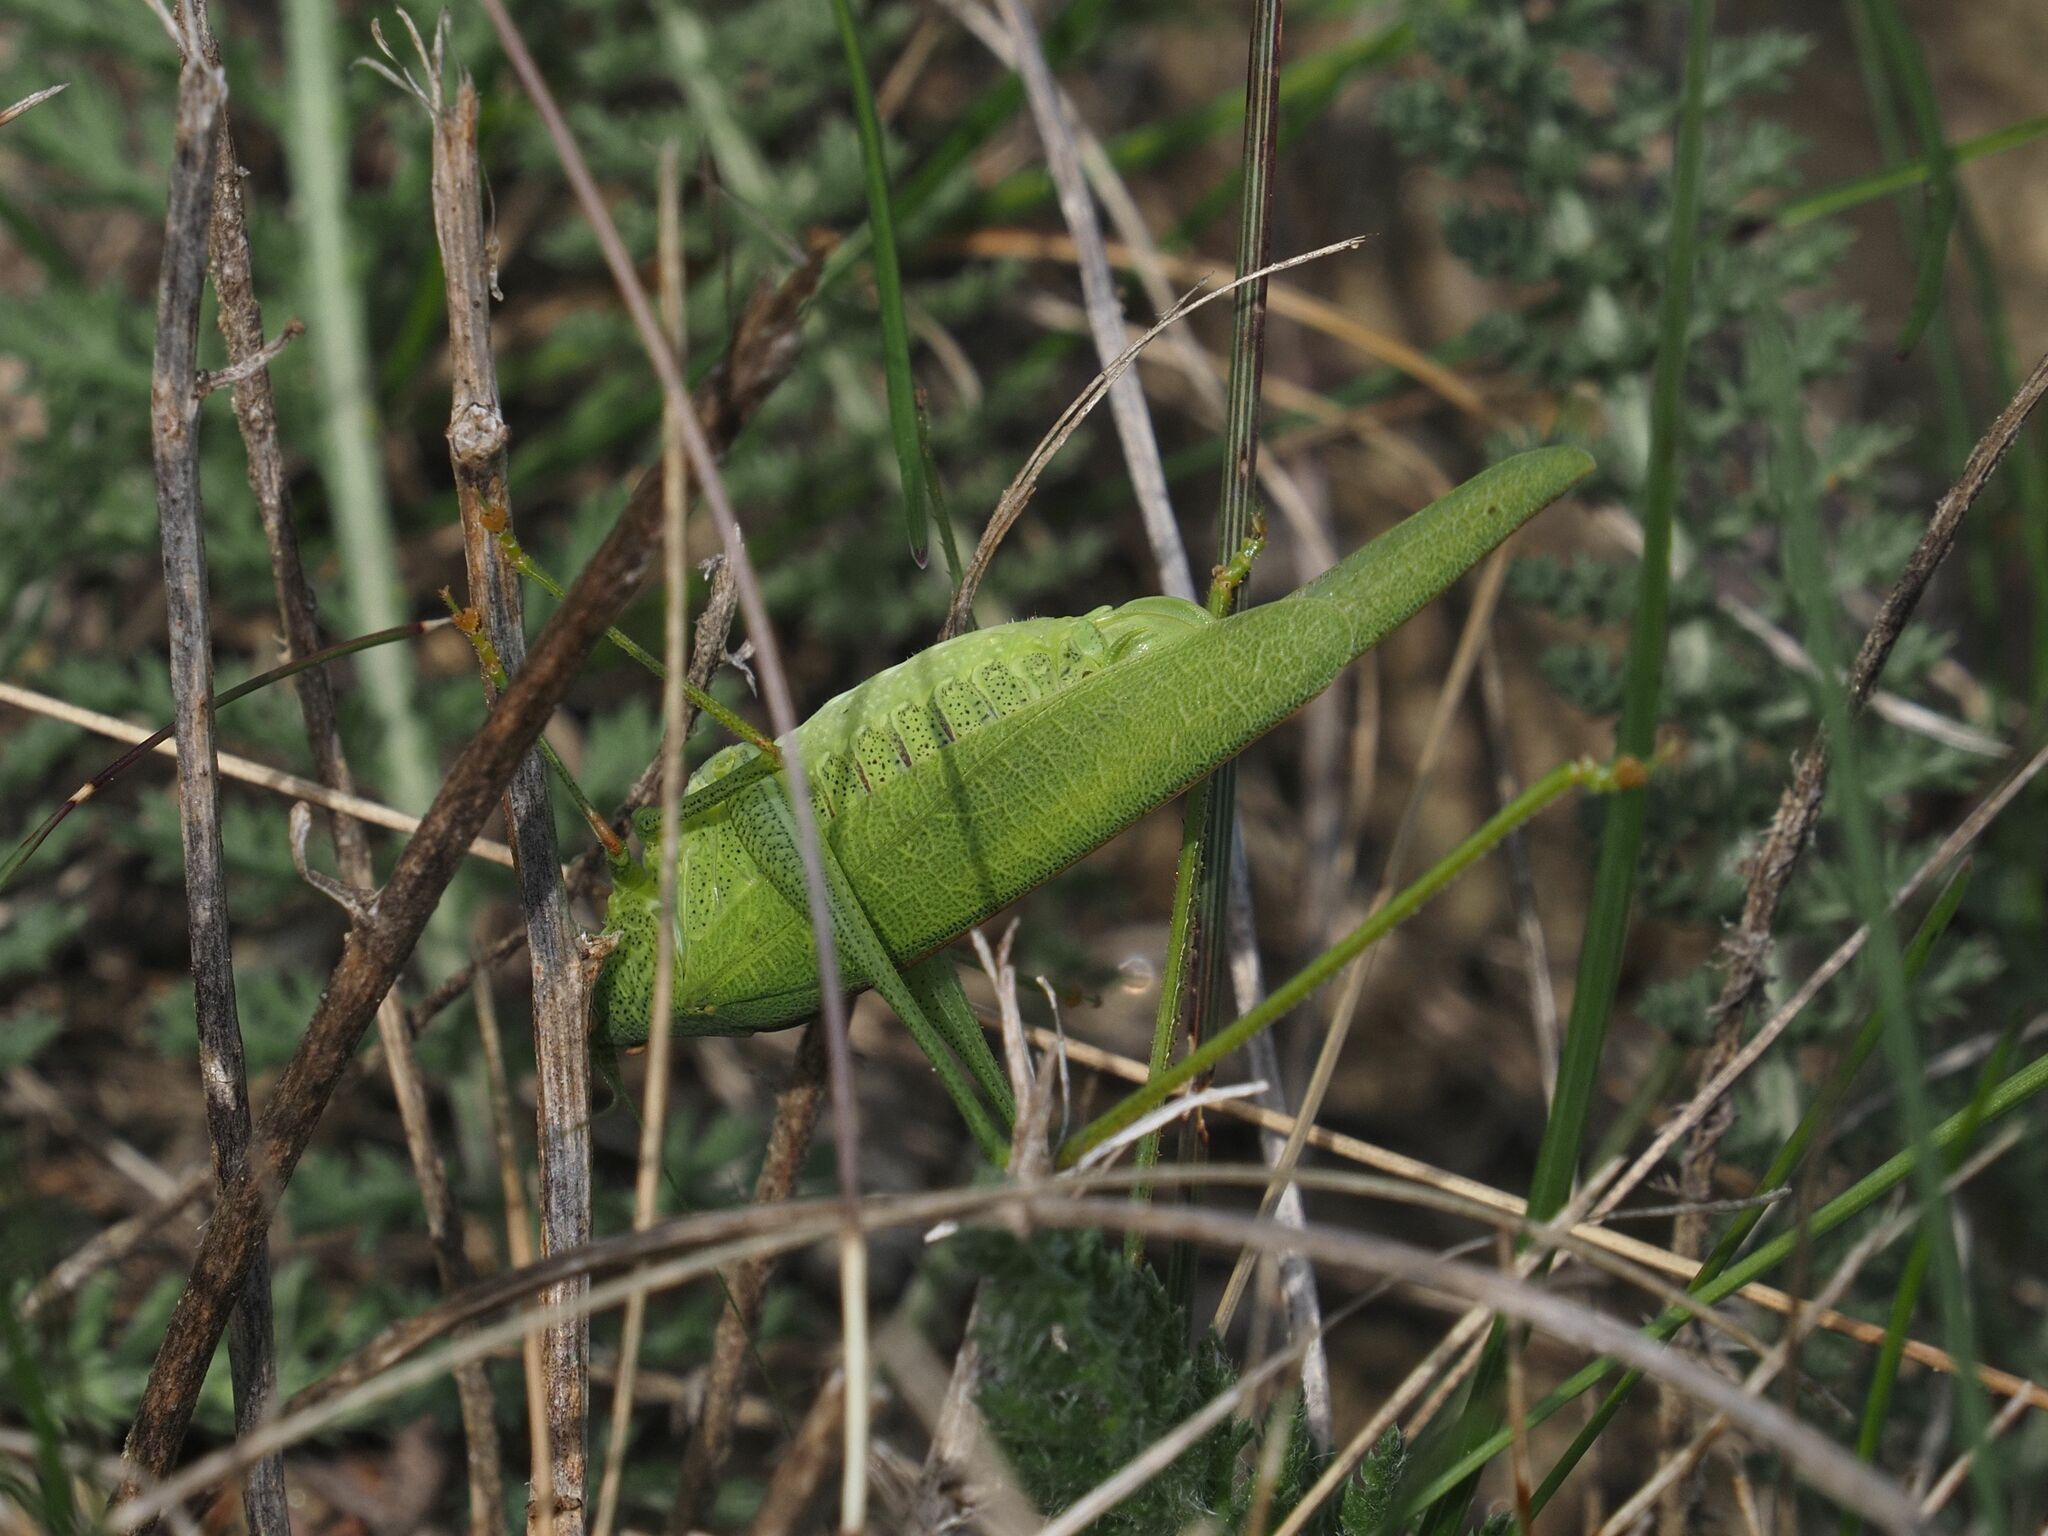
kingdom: Animalia
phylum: Arthropoda
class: Insecta
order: Orthoptera
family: Tettigoniidae
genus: Phaneroptera
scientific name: Phaneroptera nana
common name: Southern sickle bush-cricket
